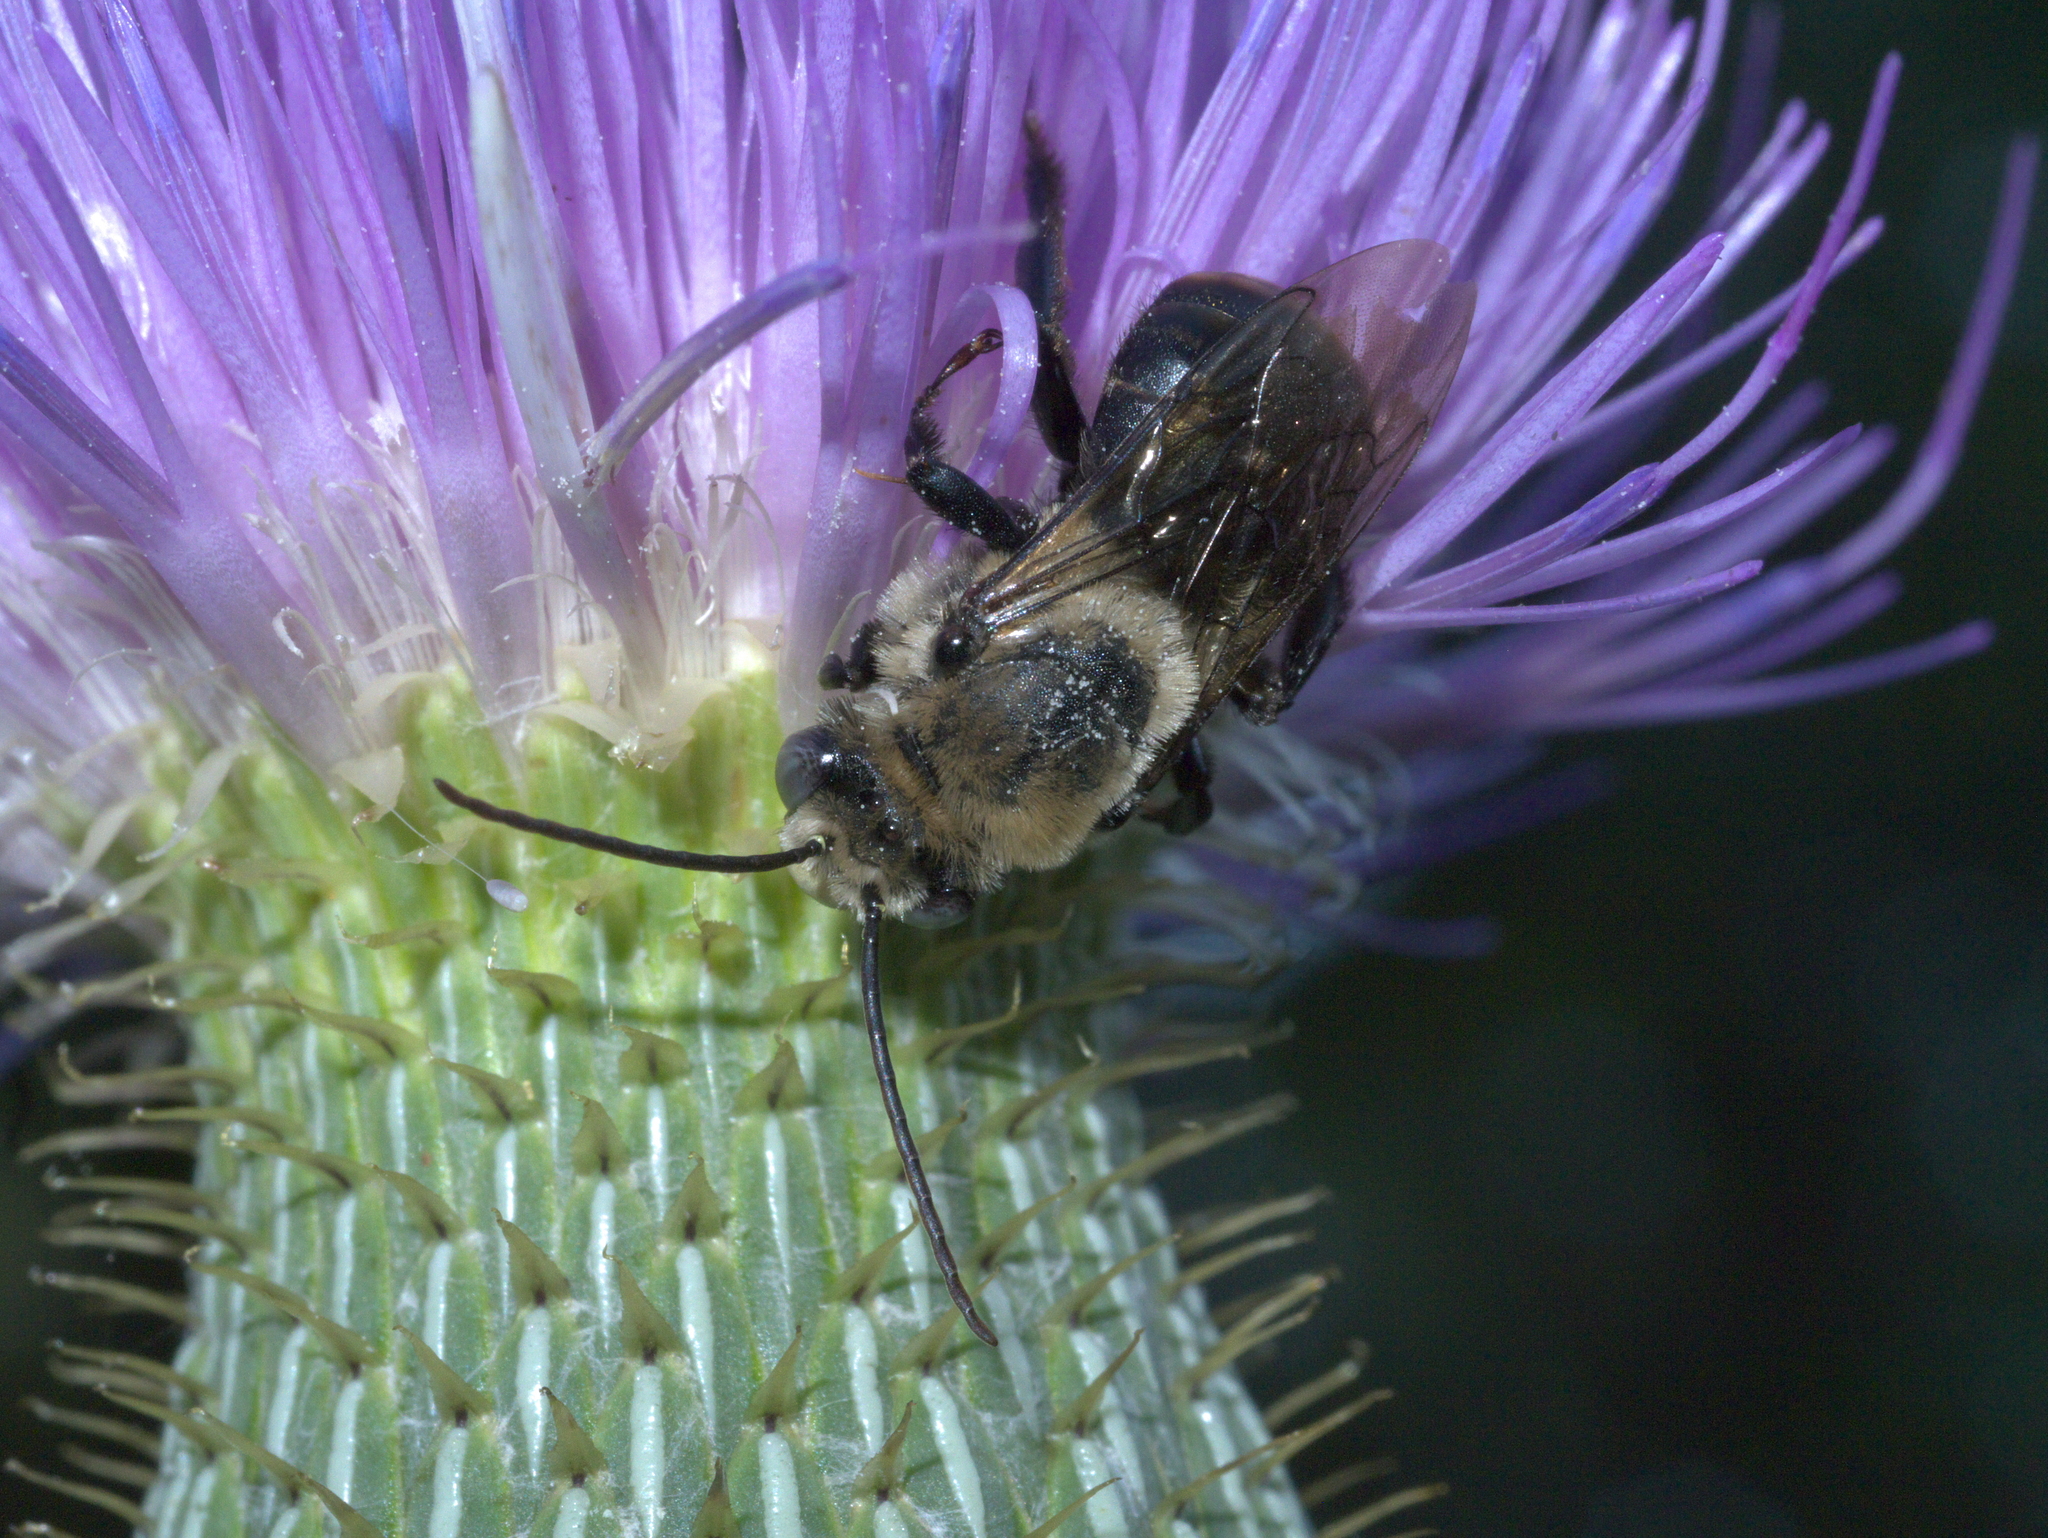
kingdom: Animalia
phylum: Arthropoda
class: Insecta
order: Hymenoptera
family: Apidae
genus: Melissodes
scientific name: Melissodes desponsus
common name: Thistle long-horned bee
